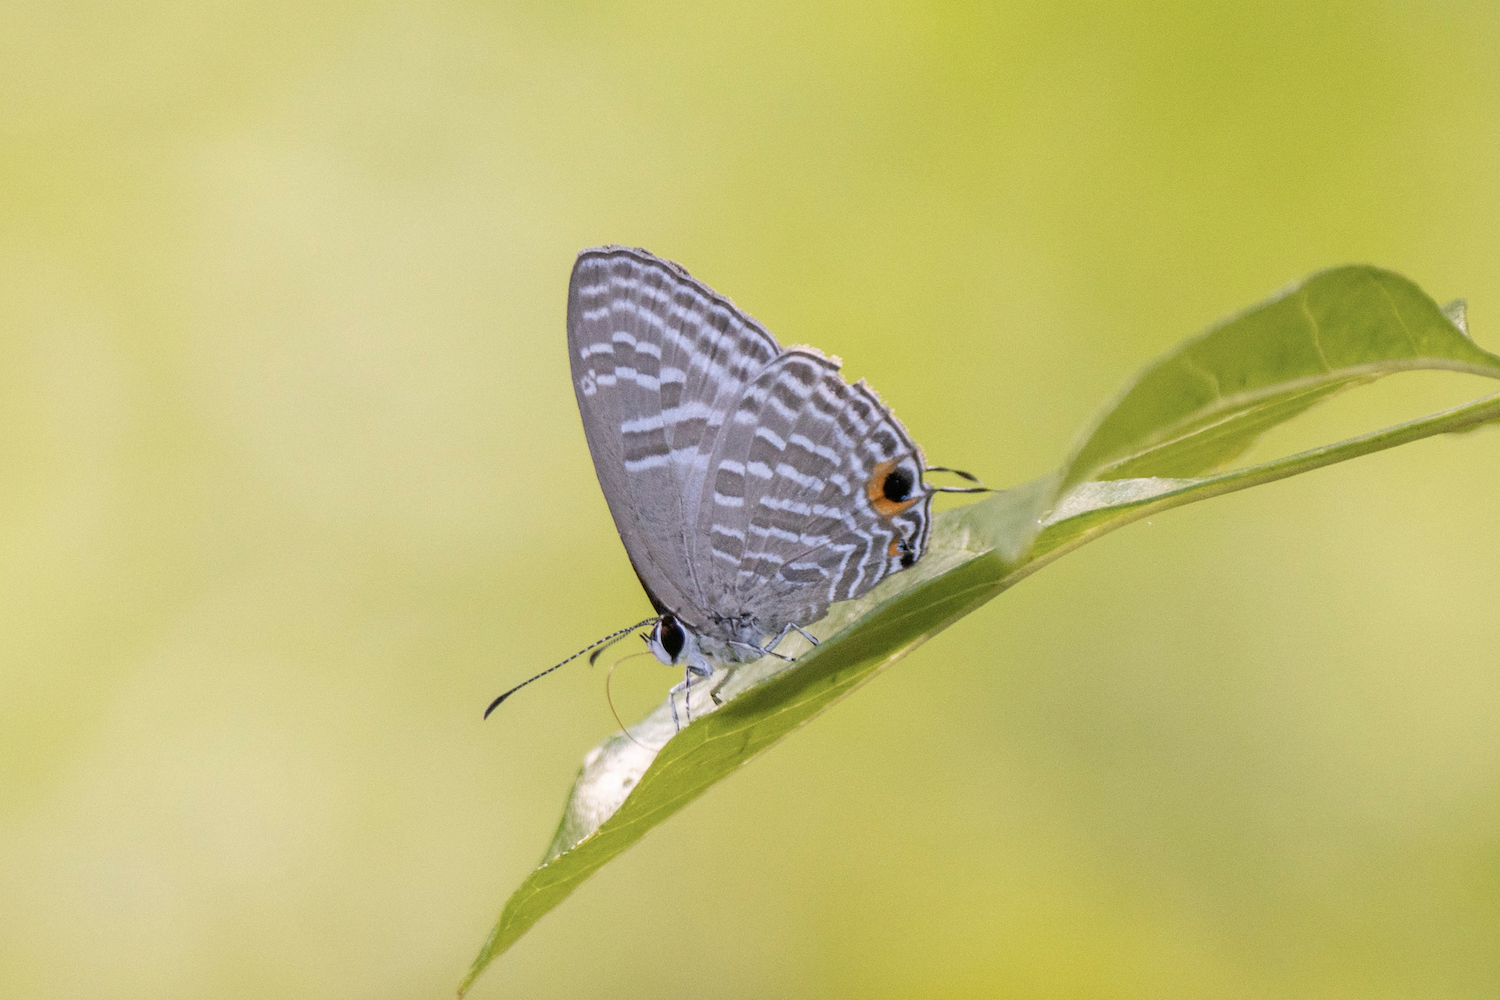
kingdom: Animalia
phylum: Arthropoda
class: Insecta
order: Lepidoptera
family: Lycaenidae
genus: Jamides
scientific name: Jamides alecto
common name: Metallic cerulean
